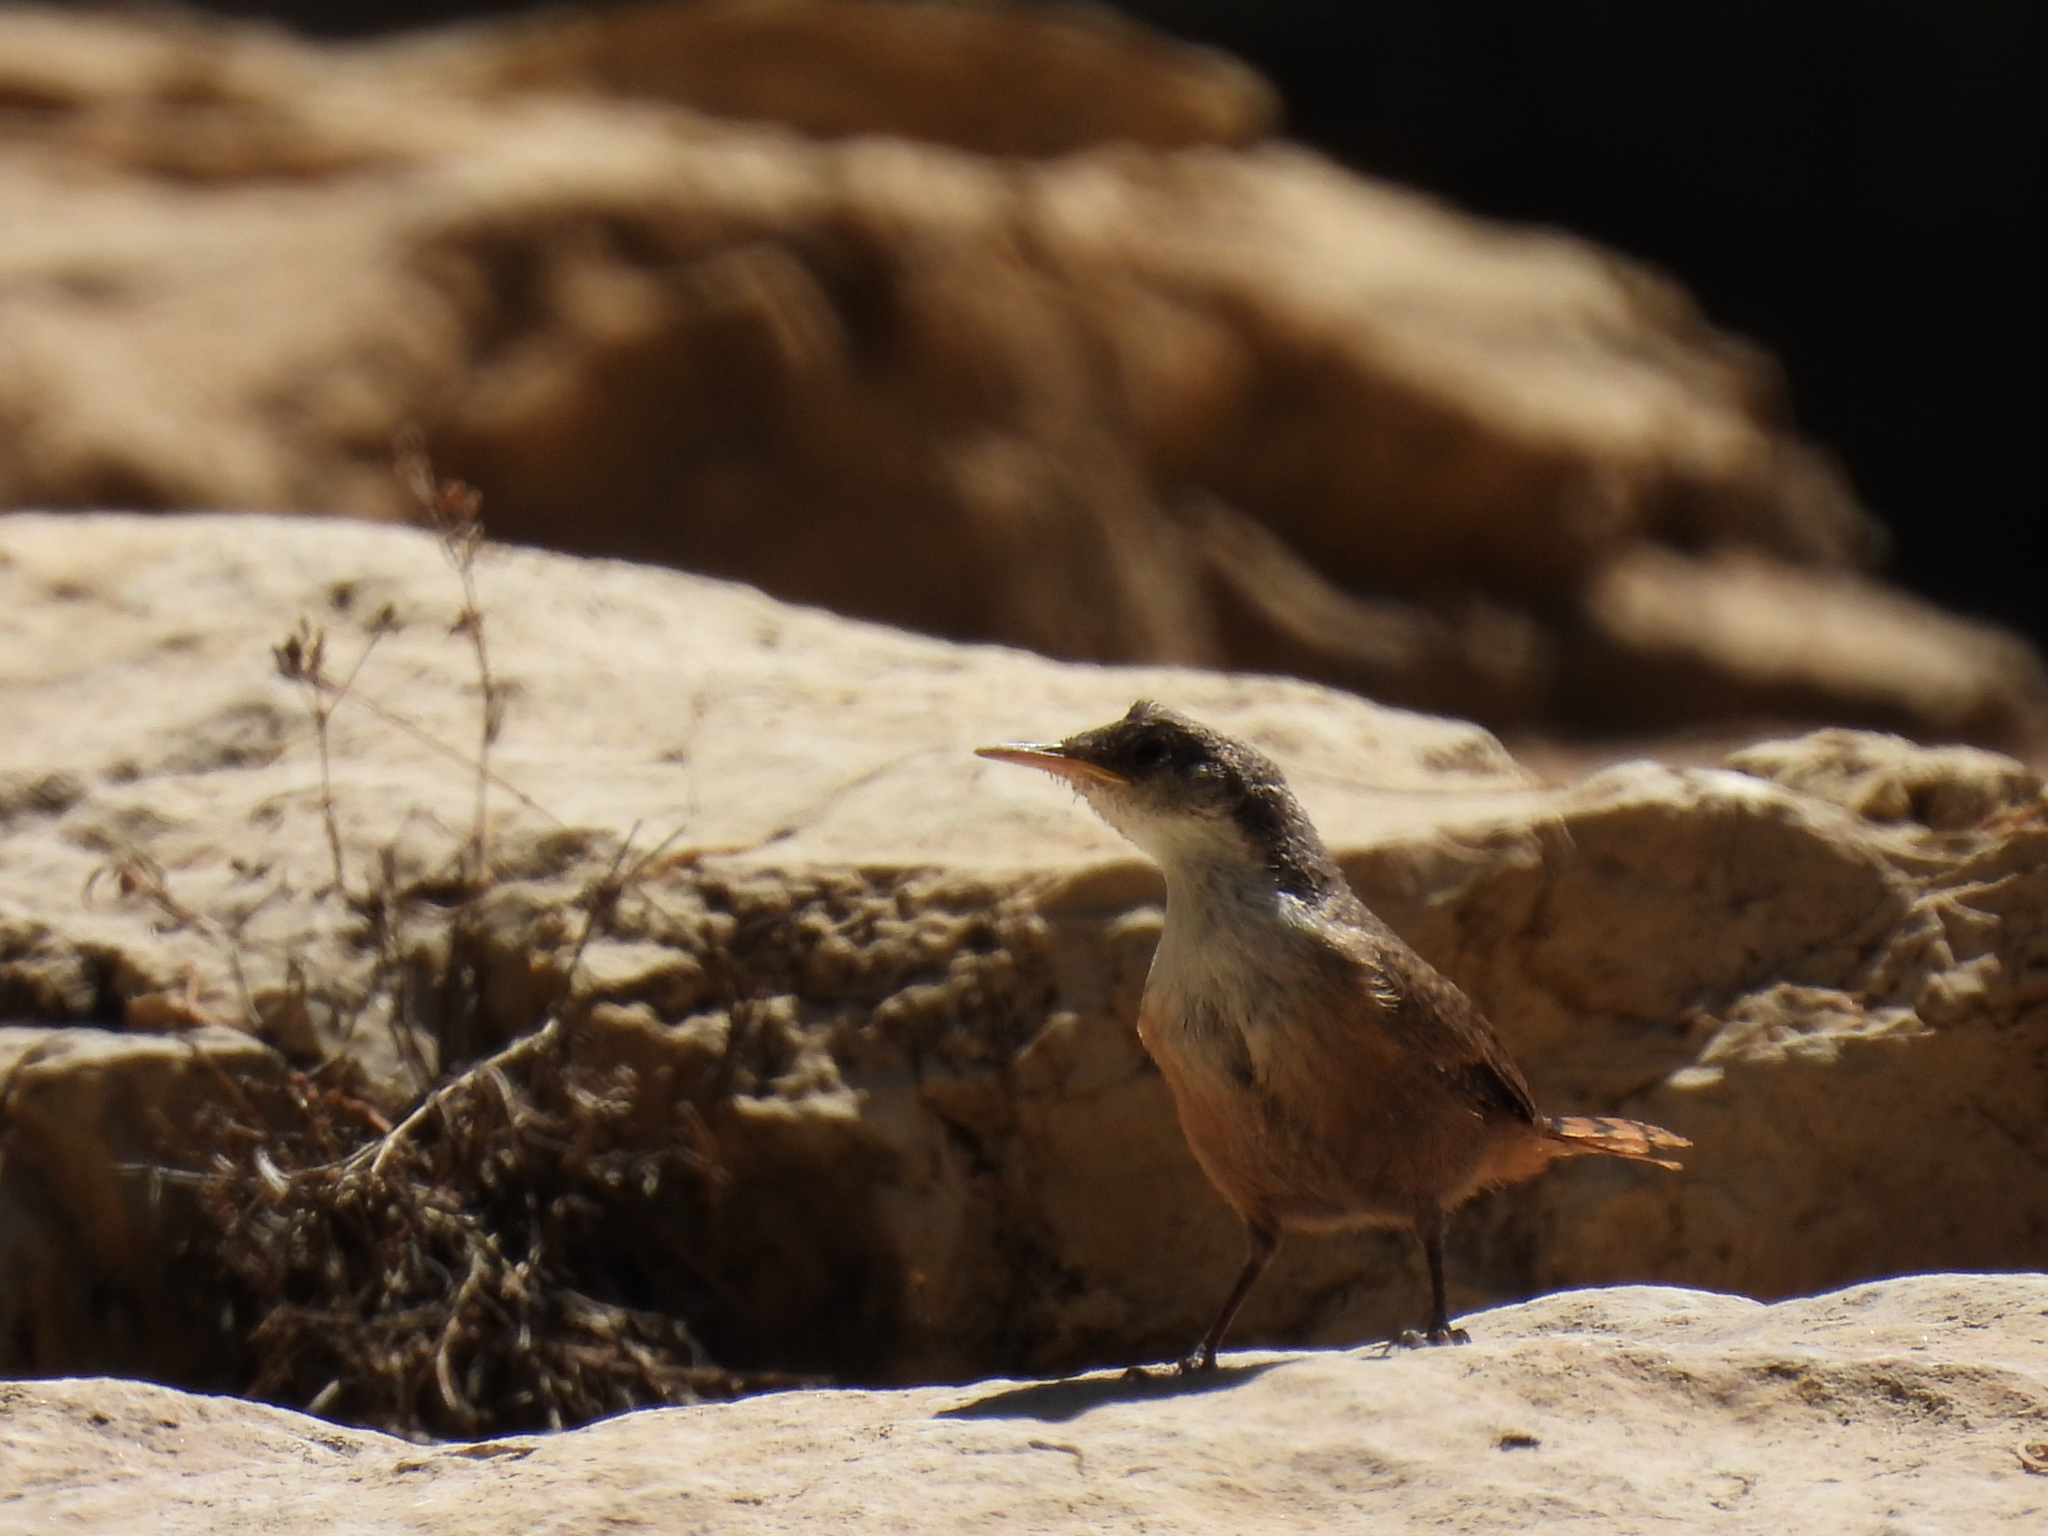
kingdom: Animalia
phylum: Chordata
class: Aves
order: Passeriformes
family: Troglodytidae
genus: Catherpes
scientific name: Catherpes mexicanus
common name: Canyon wren
